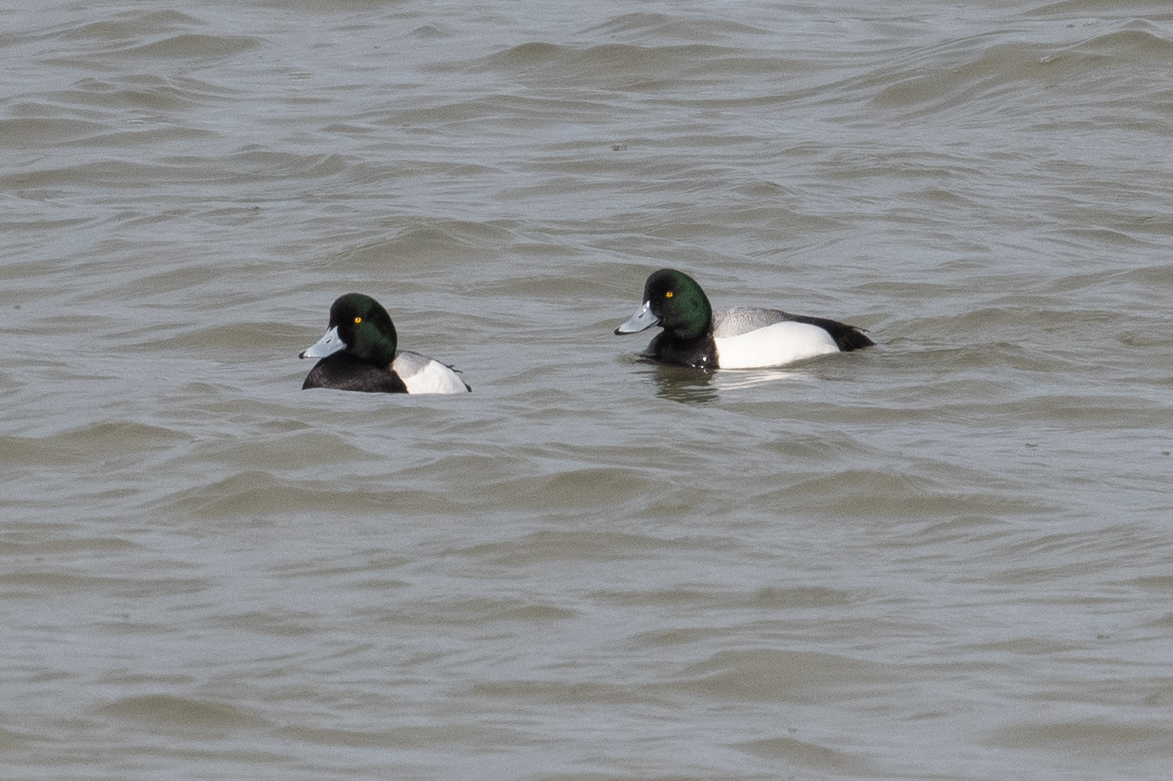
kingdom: Animalia
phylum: Chordata
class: Aves
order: Anseriformes
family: Anatidae
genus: Aythya
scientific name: Aythya marila
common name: Greater scaup
